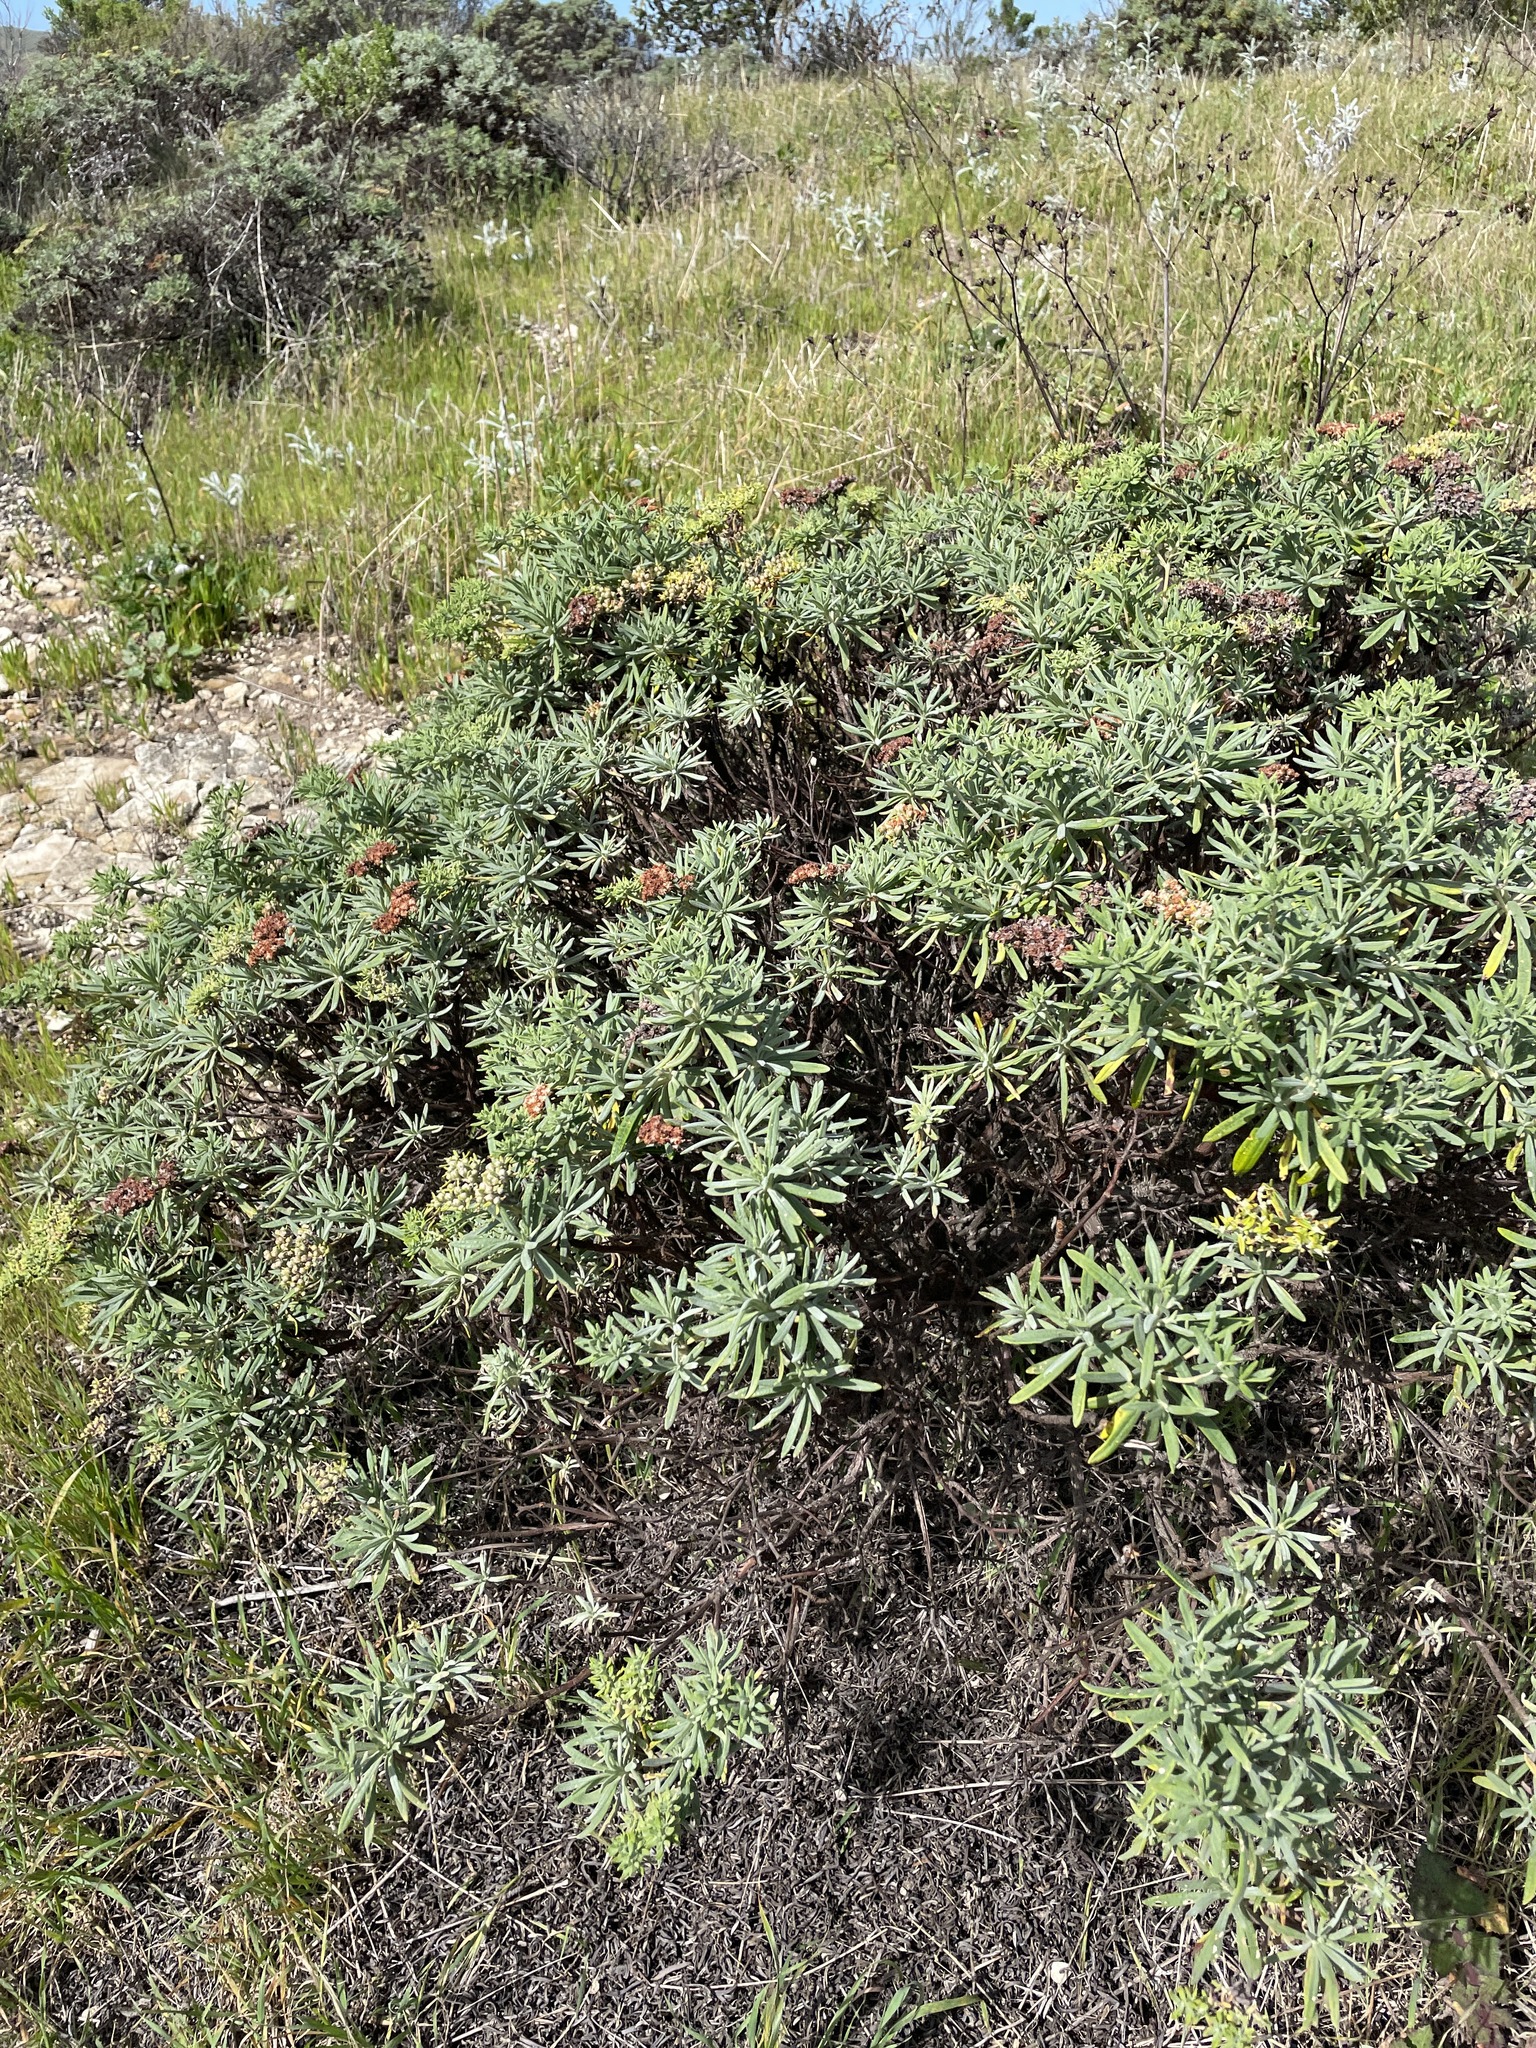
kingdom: Plantae
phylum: Tracheophyta
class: Magnoliopsida
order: Caryophyllales
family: Polygonaceae
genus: Eriogonum
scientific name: Eriogonum arborescens
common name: Island buckwheat
